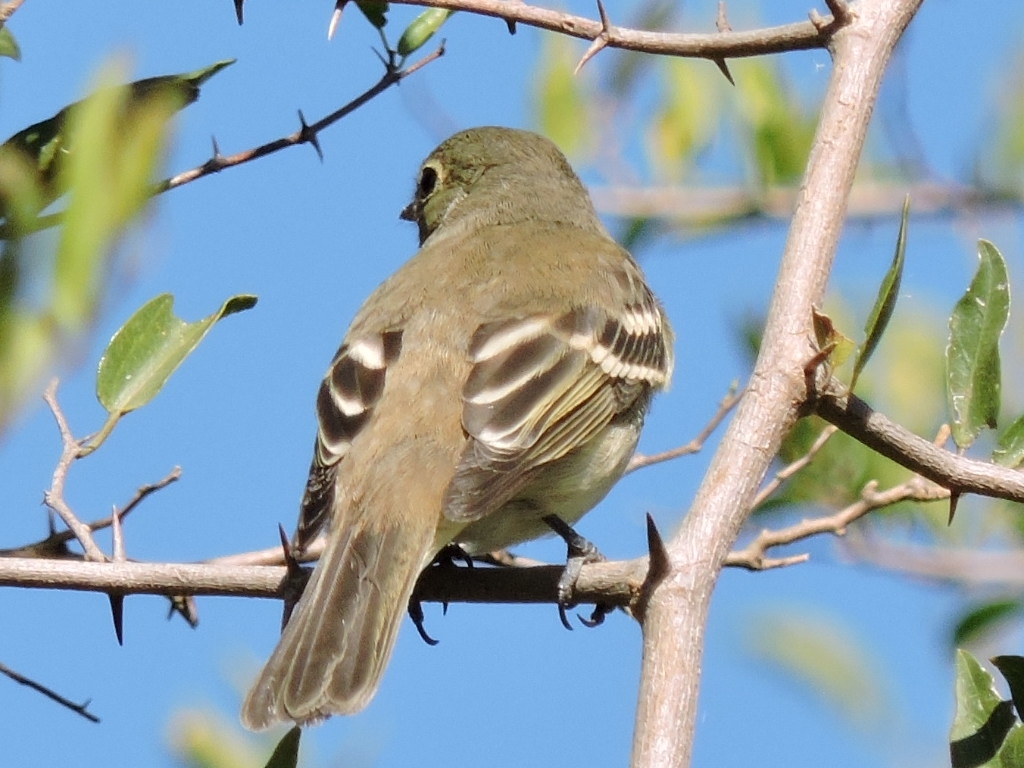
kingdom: Animalia
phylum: Chordata
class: Aves
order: Passeriformes
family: Tyrannidae
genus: Elaenia
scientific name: Elaenia parvirostris
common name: Small-billed elaenia
